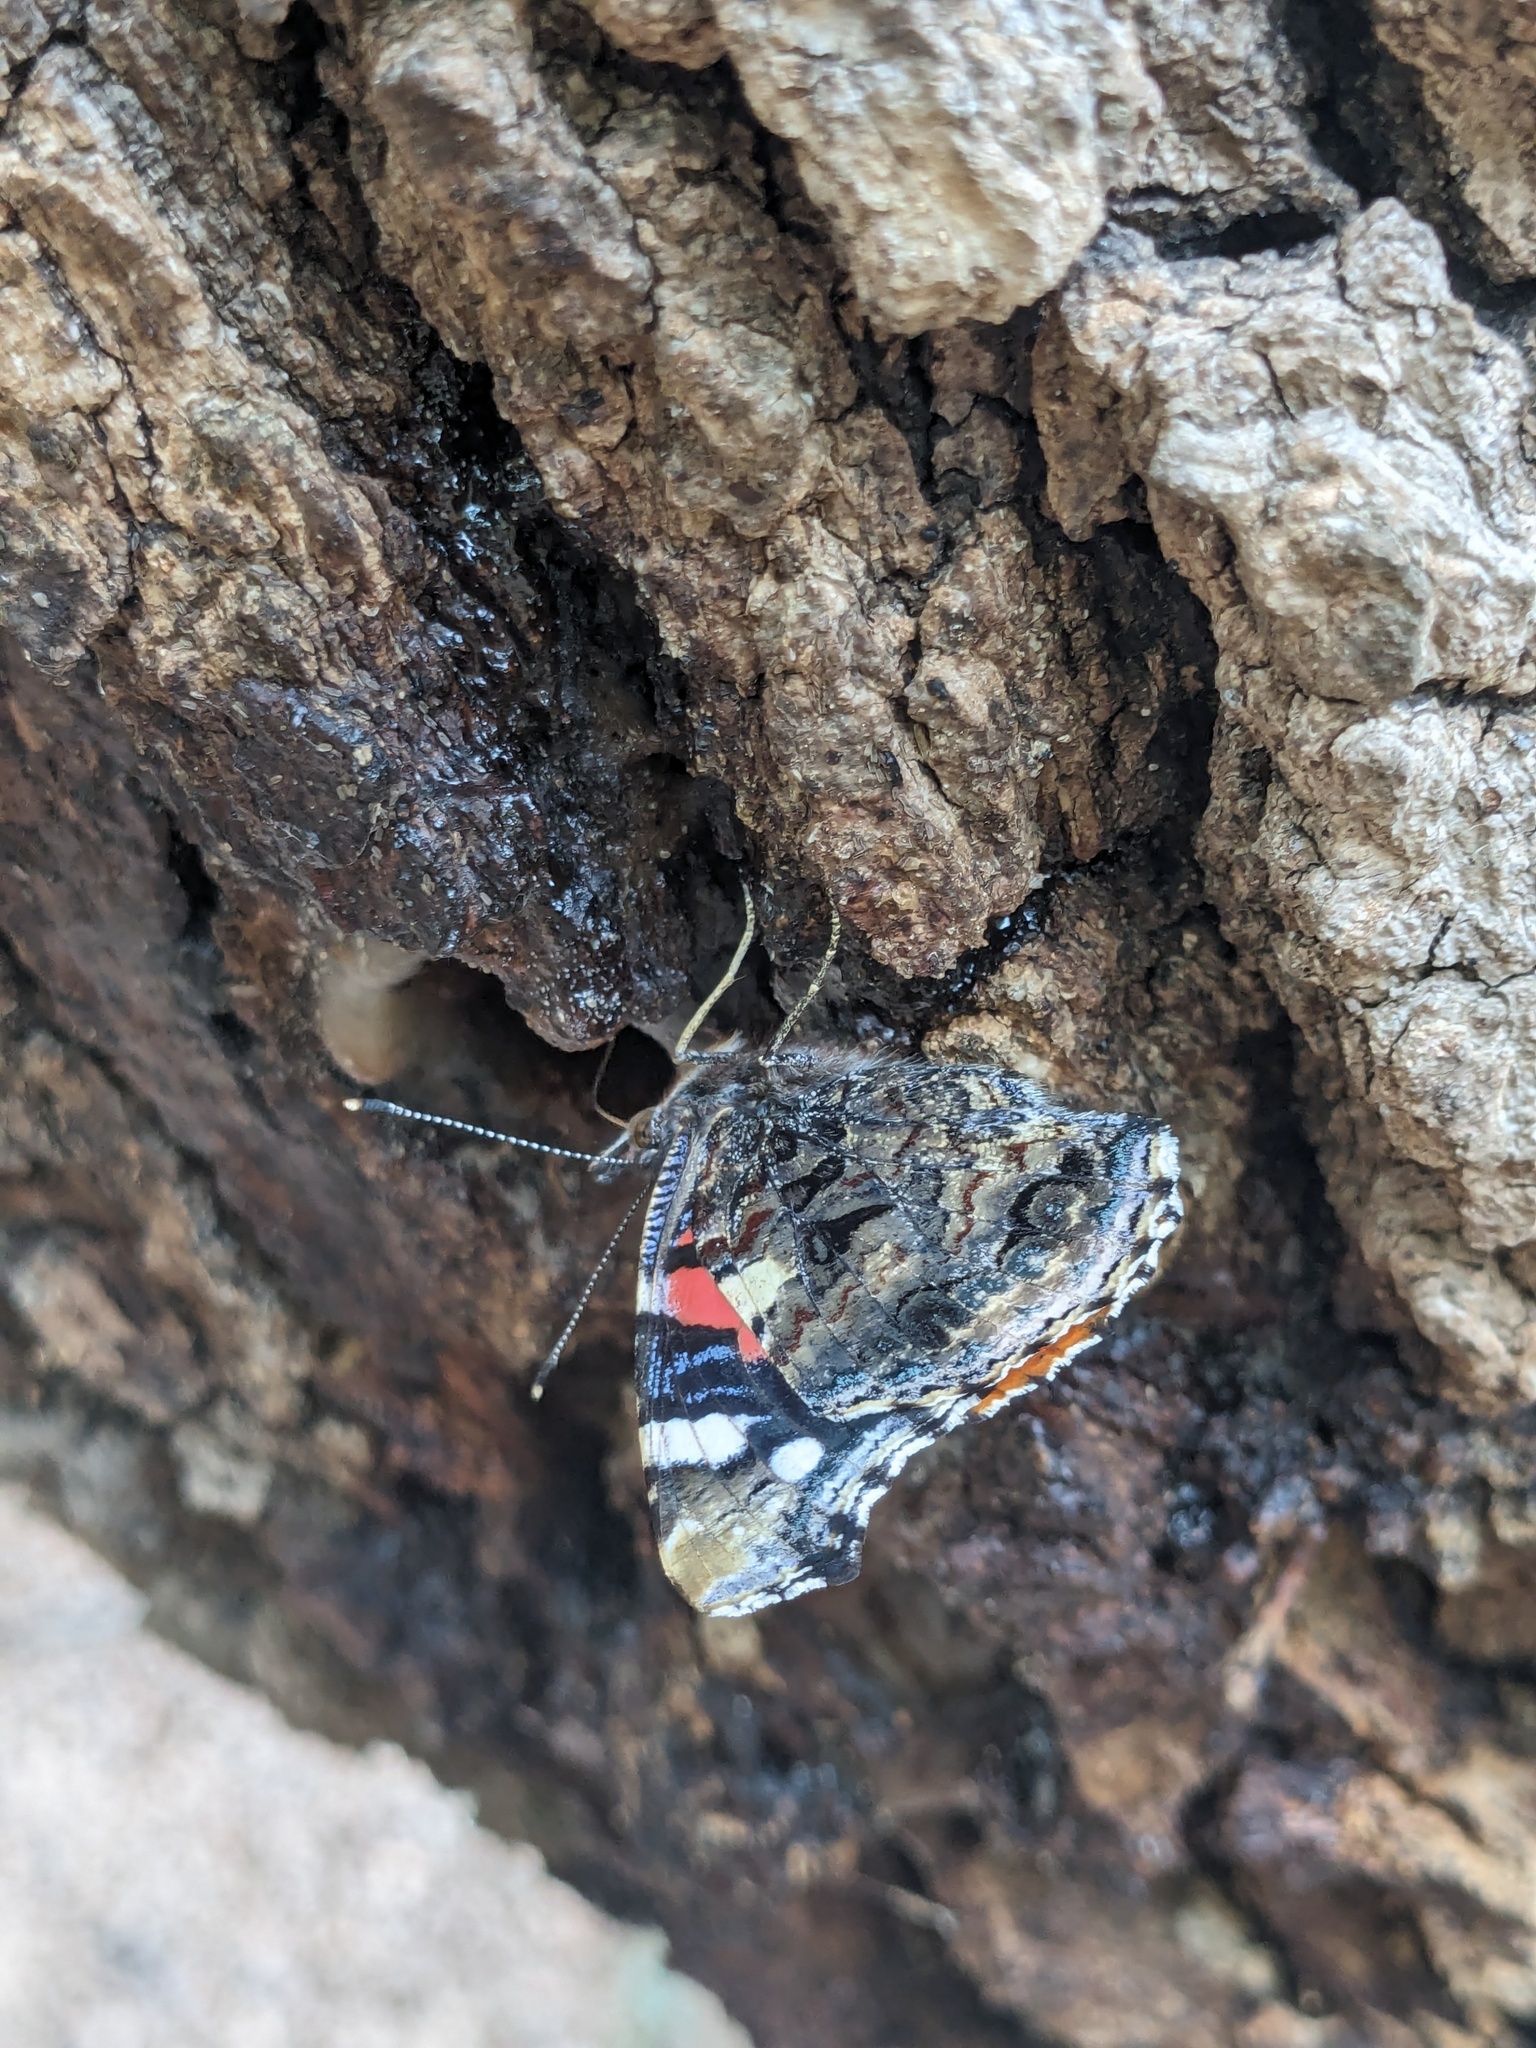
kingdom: Animalia
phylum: Arthropoda
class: Insecta
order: Lepidoptera
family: Nymphalidae
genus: Vanessa
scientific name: Vanessa atalanta
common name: Red admiral
